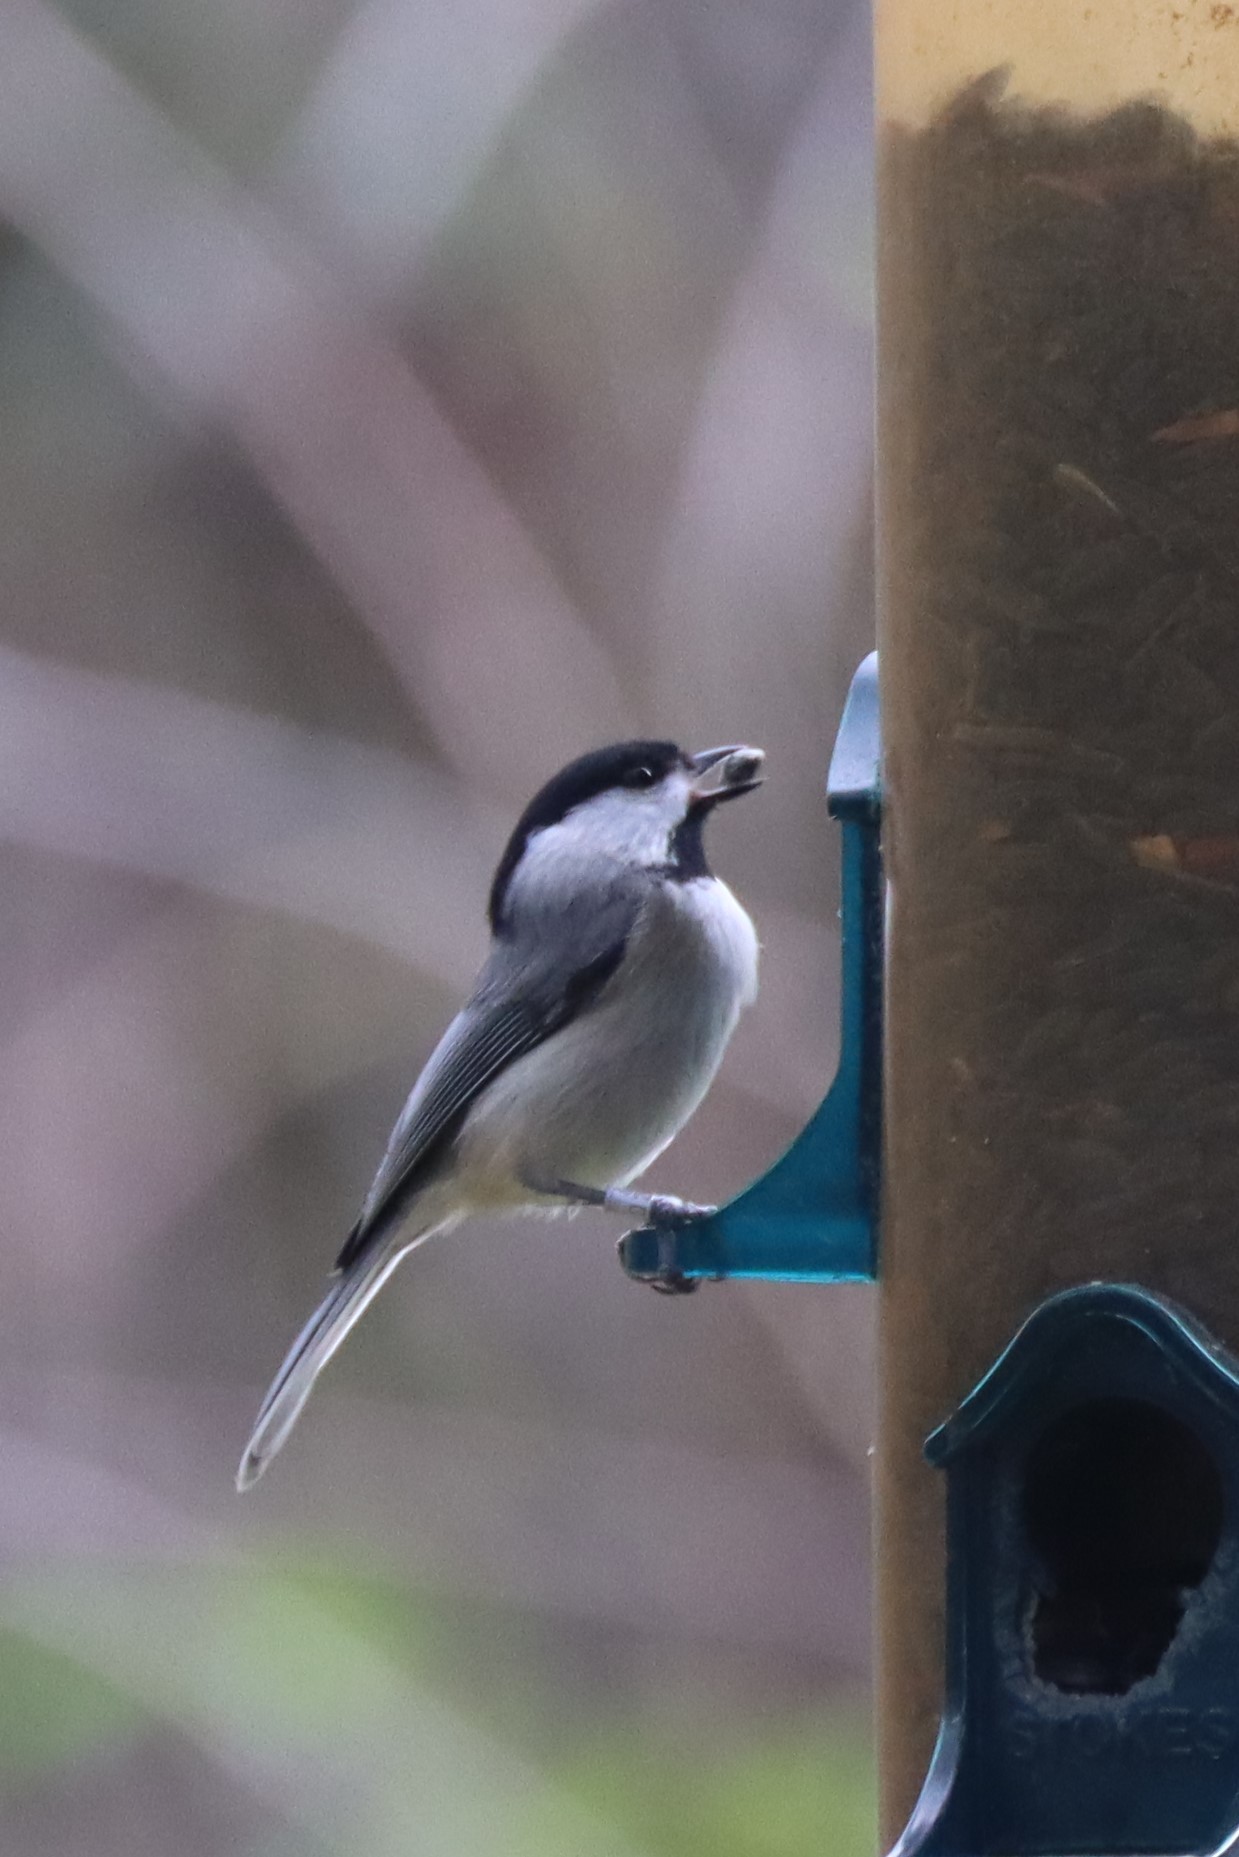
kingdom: Animalia
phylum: Chordata
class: Aves
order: Passeriformes
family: Paridae
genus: Poecile
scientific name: Poecile carolinensis
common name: Carolina chickadee
